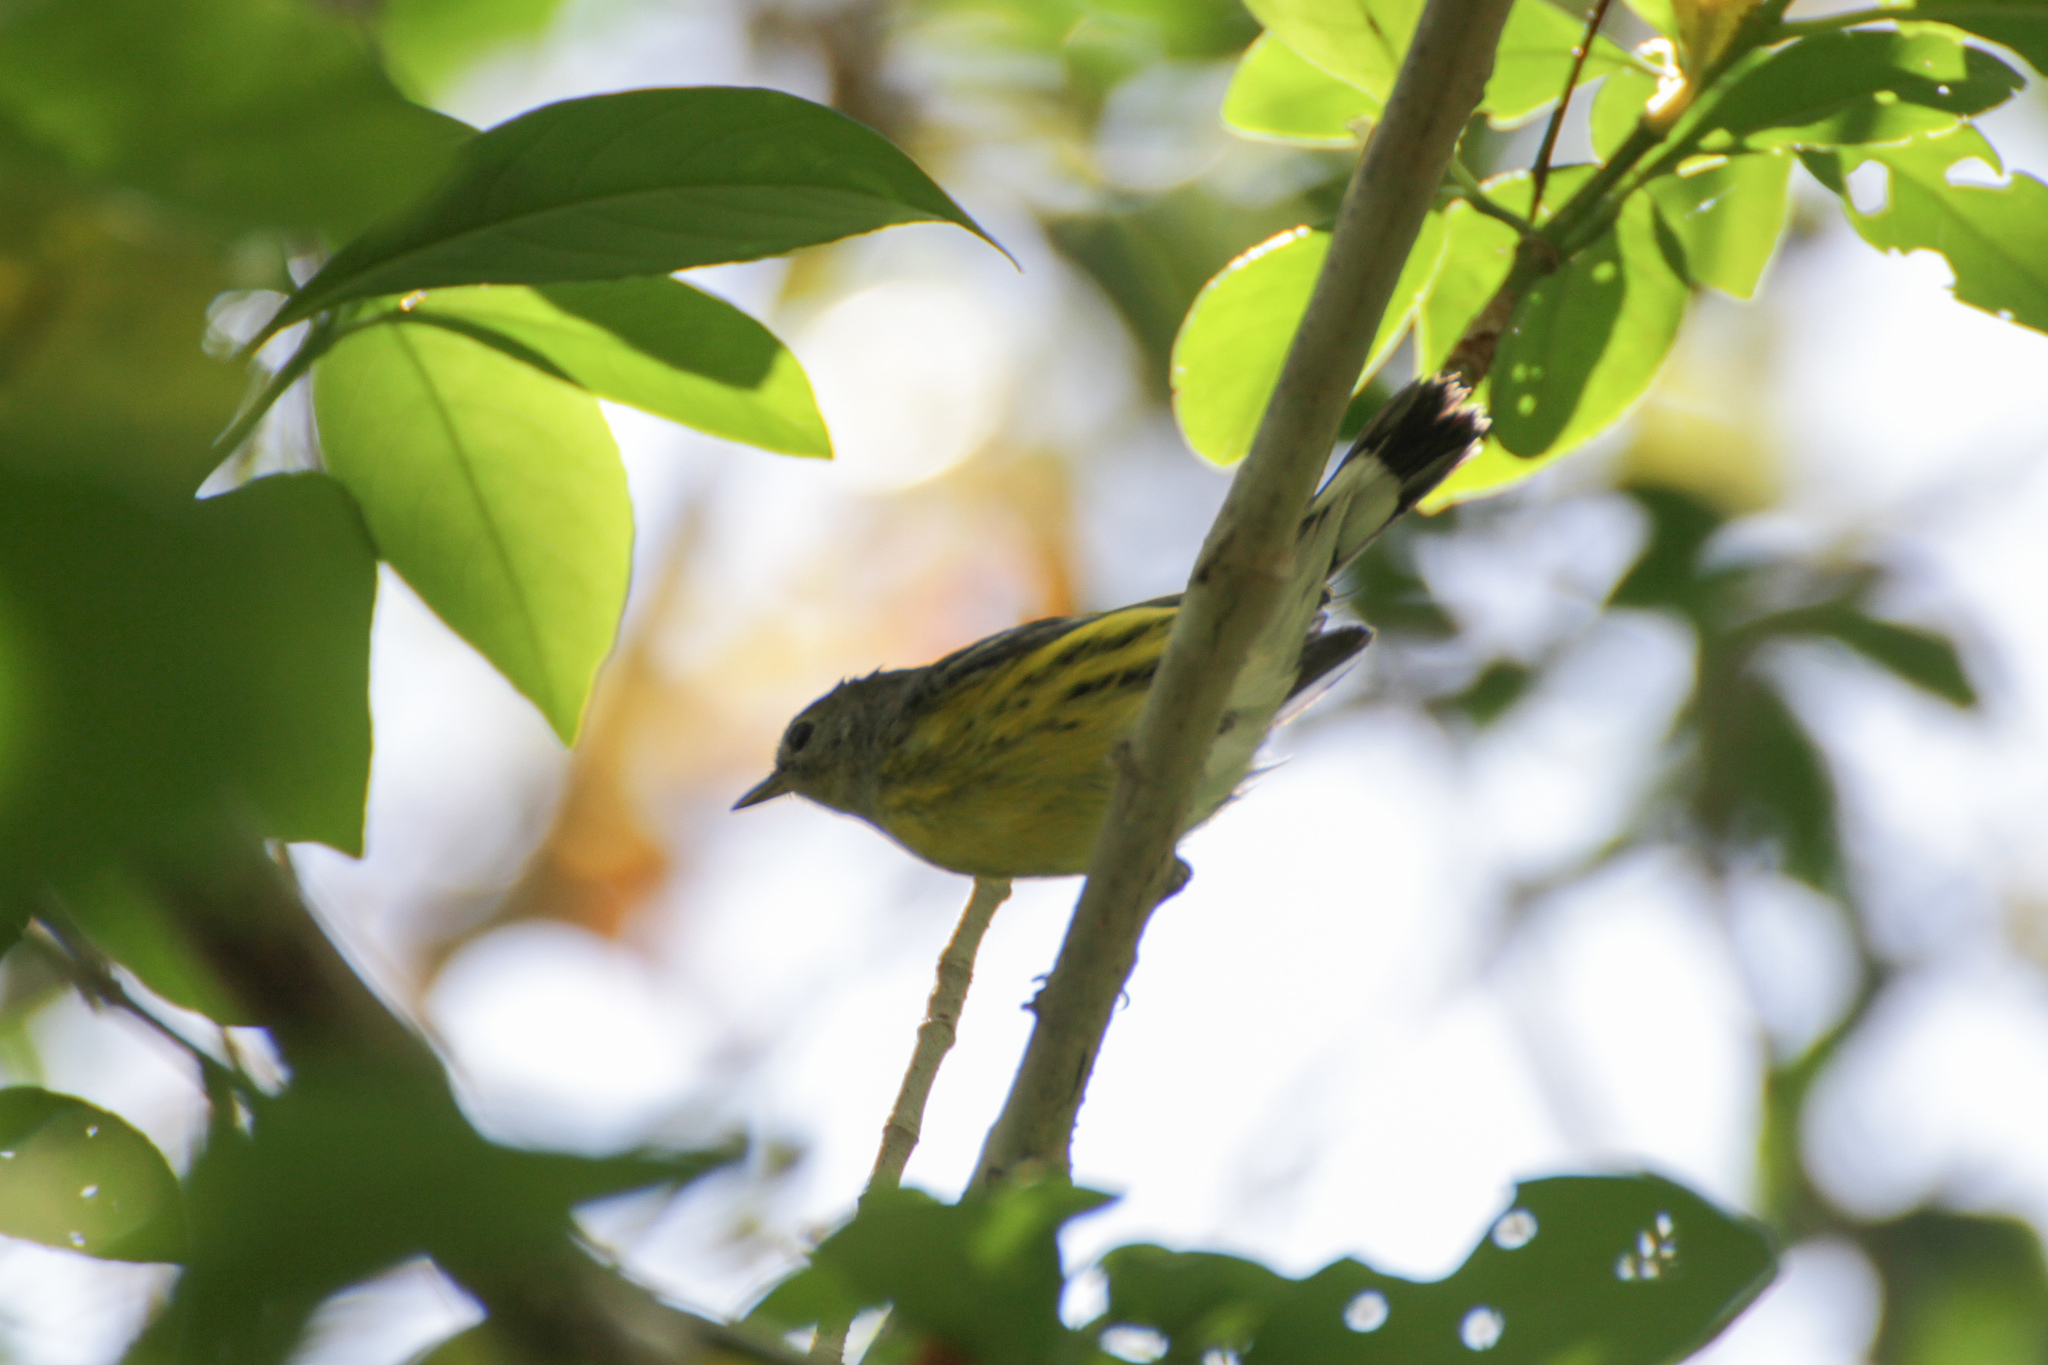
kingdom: Animalia
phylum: Chordata
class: Aves
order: Passeriformes
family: Parulidae
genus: Setophaga
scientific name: Setophaga magnolia
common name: Magnolia warbler
